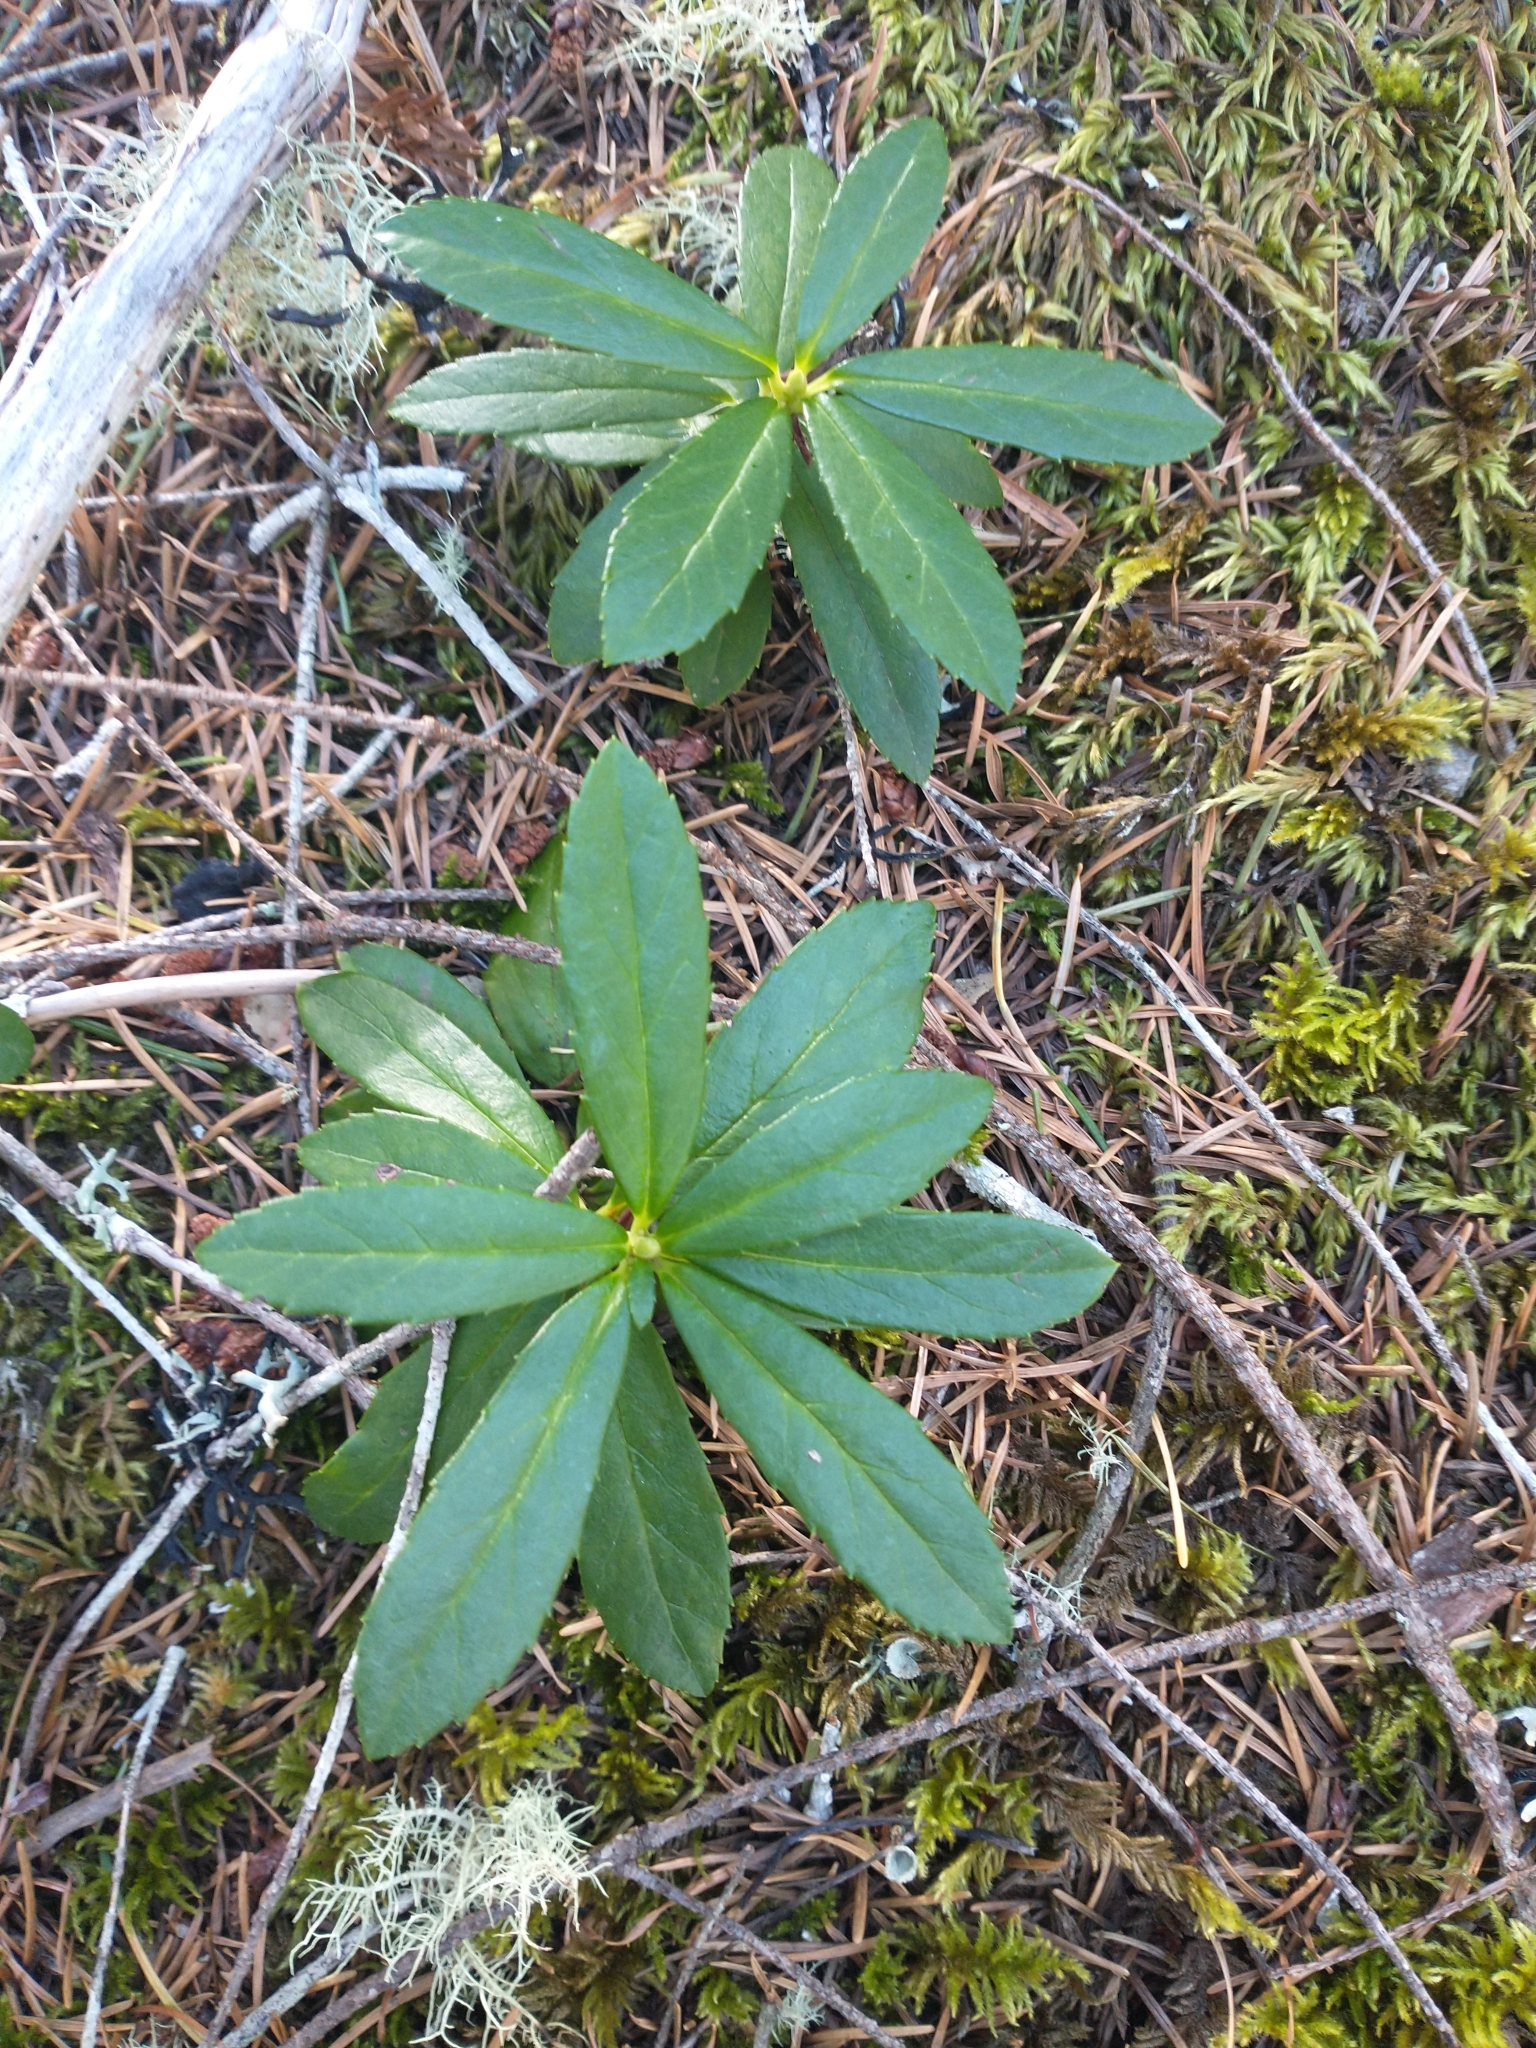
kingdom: Plantae
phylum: Tracheophyta
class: Magnoliopsida
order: Ericales
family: Ericaceae
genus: Chimaphila
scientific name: Chimaphila umbellata
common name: Pipsissewa
